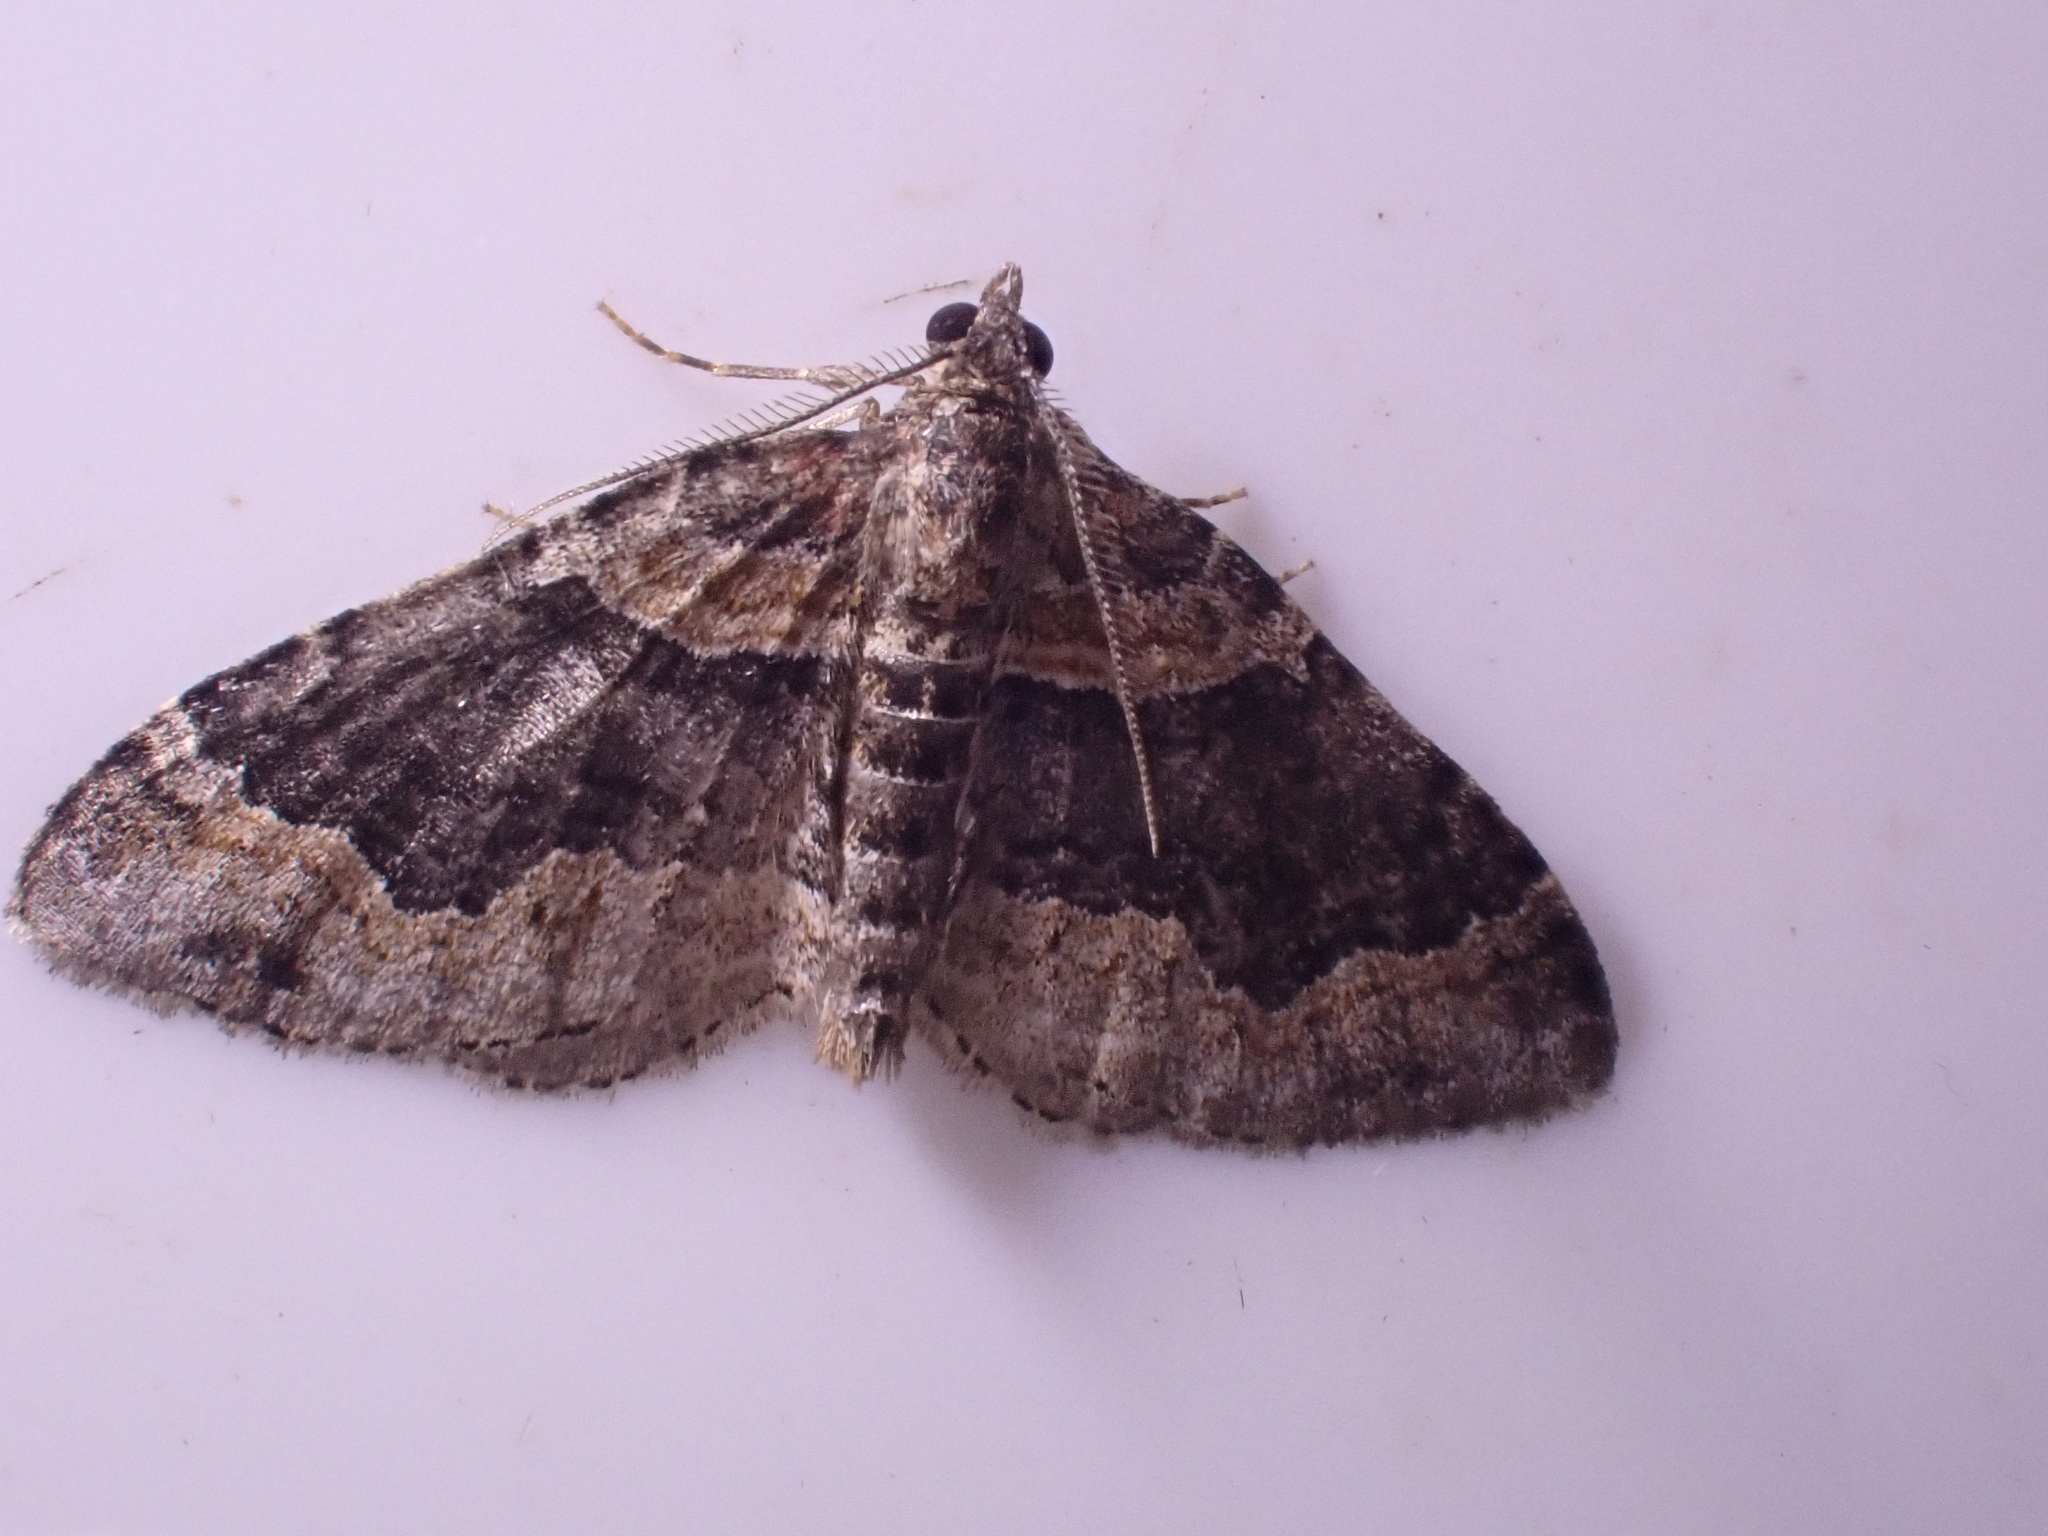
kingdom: Animalia
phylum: Arthropoda
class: Insecta
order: Lepidoptera
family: Geometridae
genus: Xanthorhoe
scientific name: Xanthorhoe ferrugata
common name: Dark-barred twin-spot carpet
